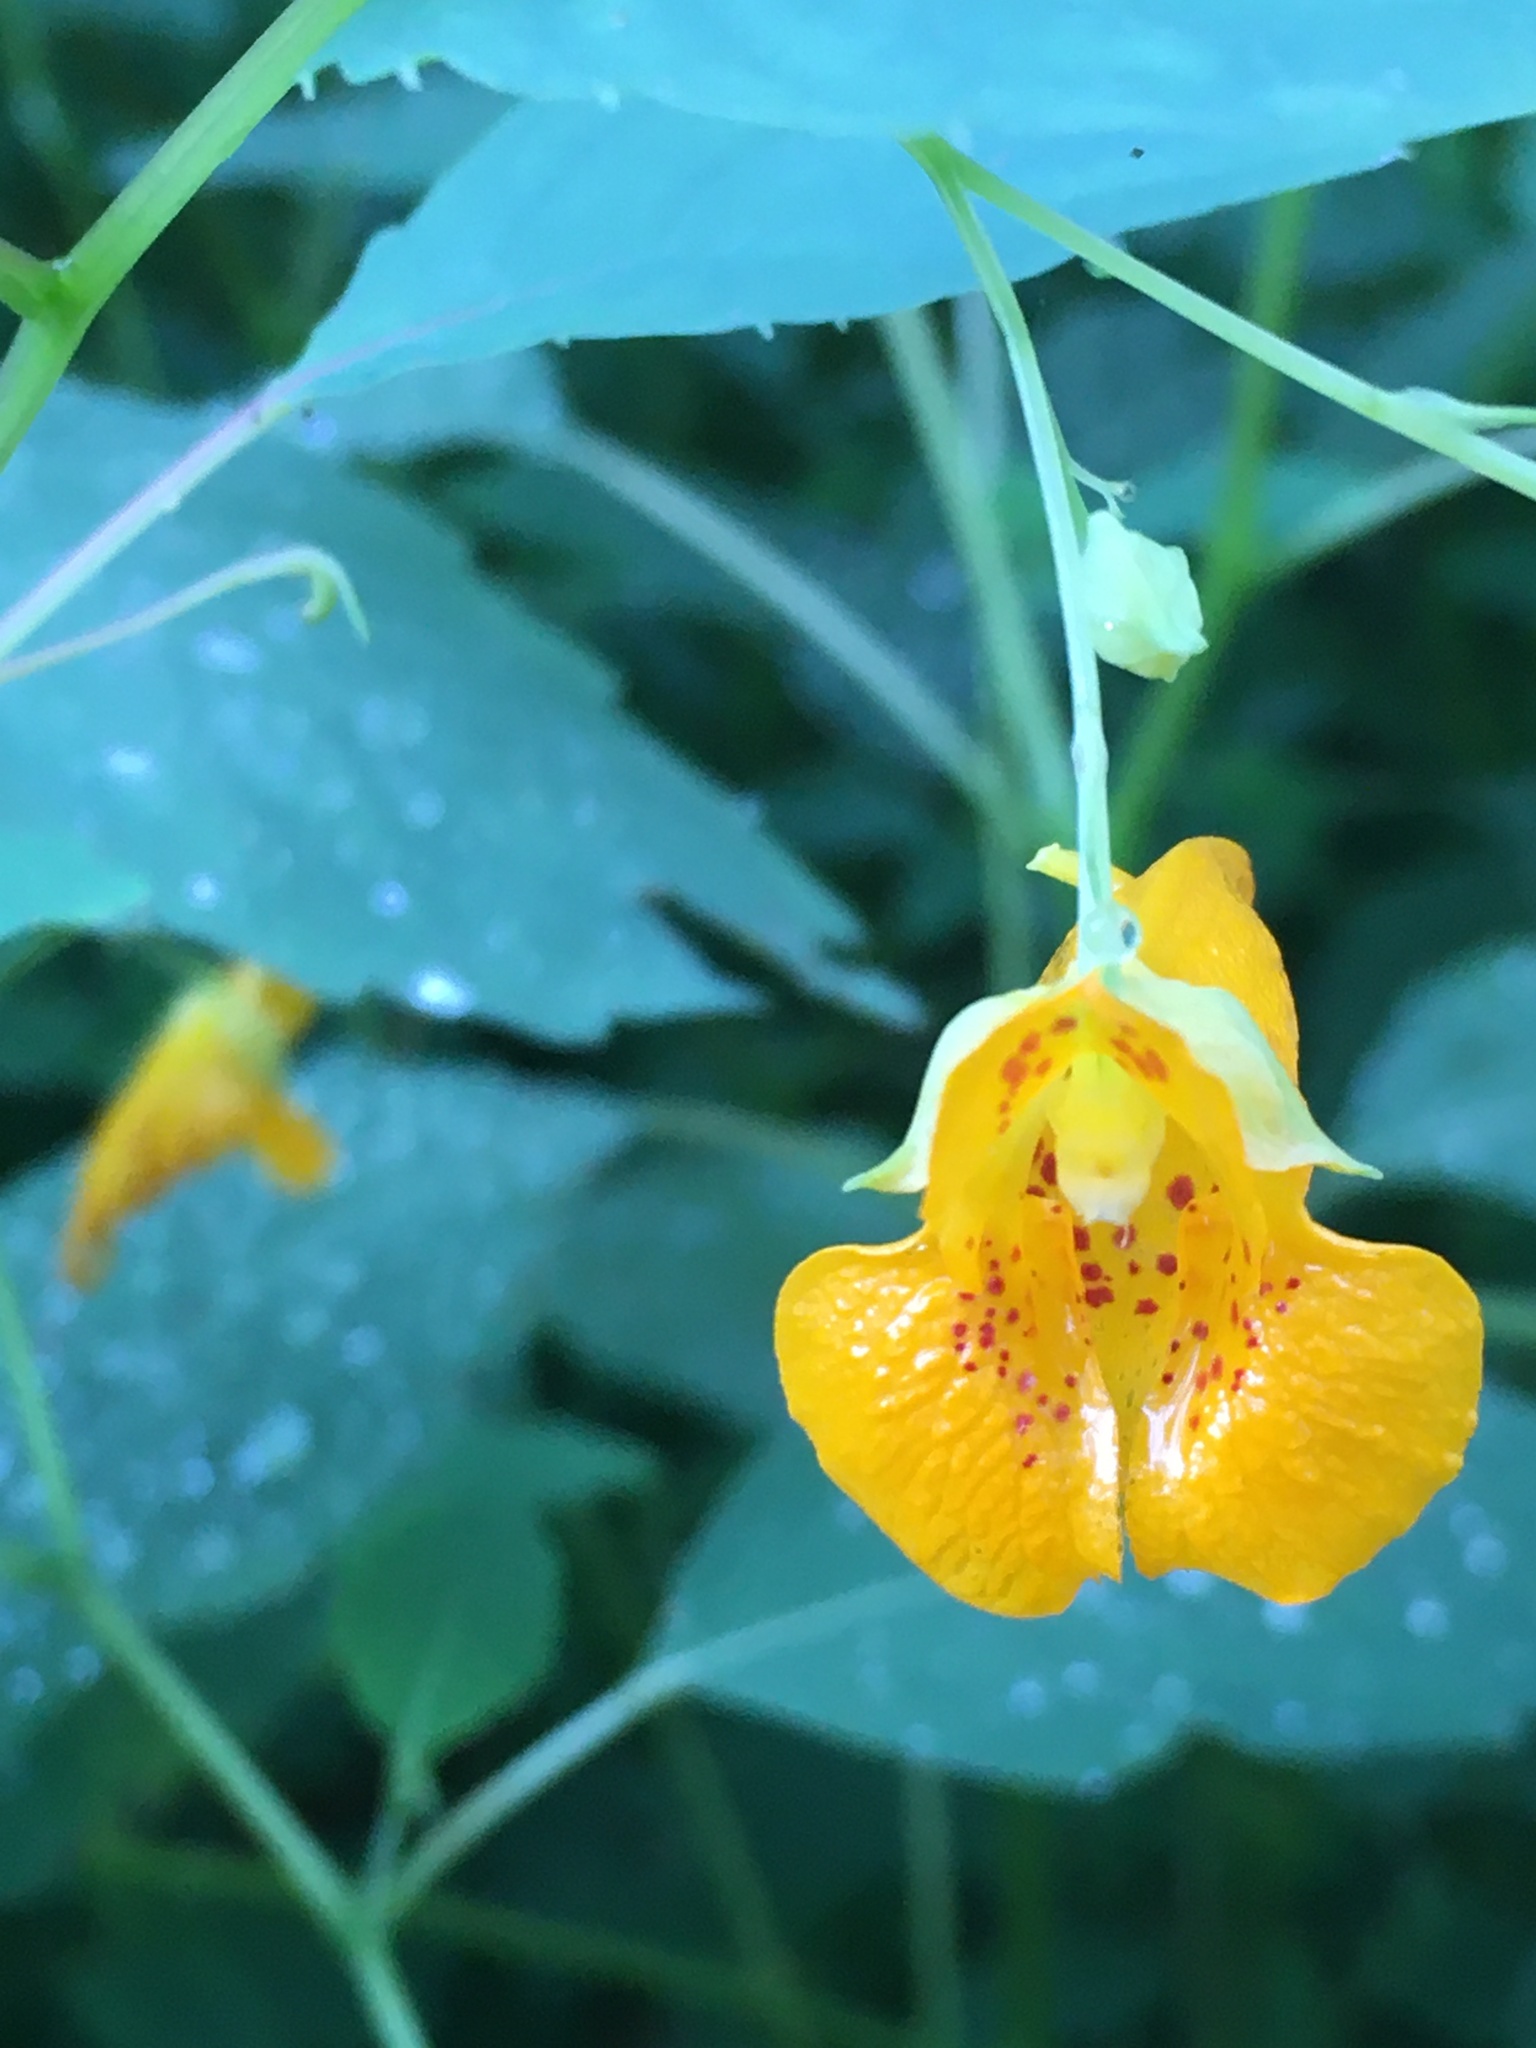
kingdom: Plantae
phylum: Tracheophyta
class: Magnoliopsida
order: Ericales
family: Balsaminaceae
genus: Impatiens
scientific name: Impatiens capensis
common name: Orange balsam
